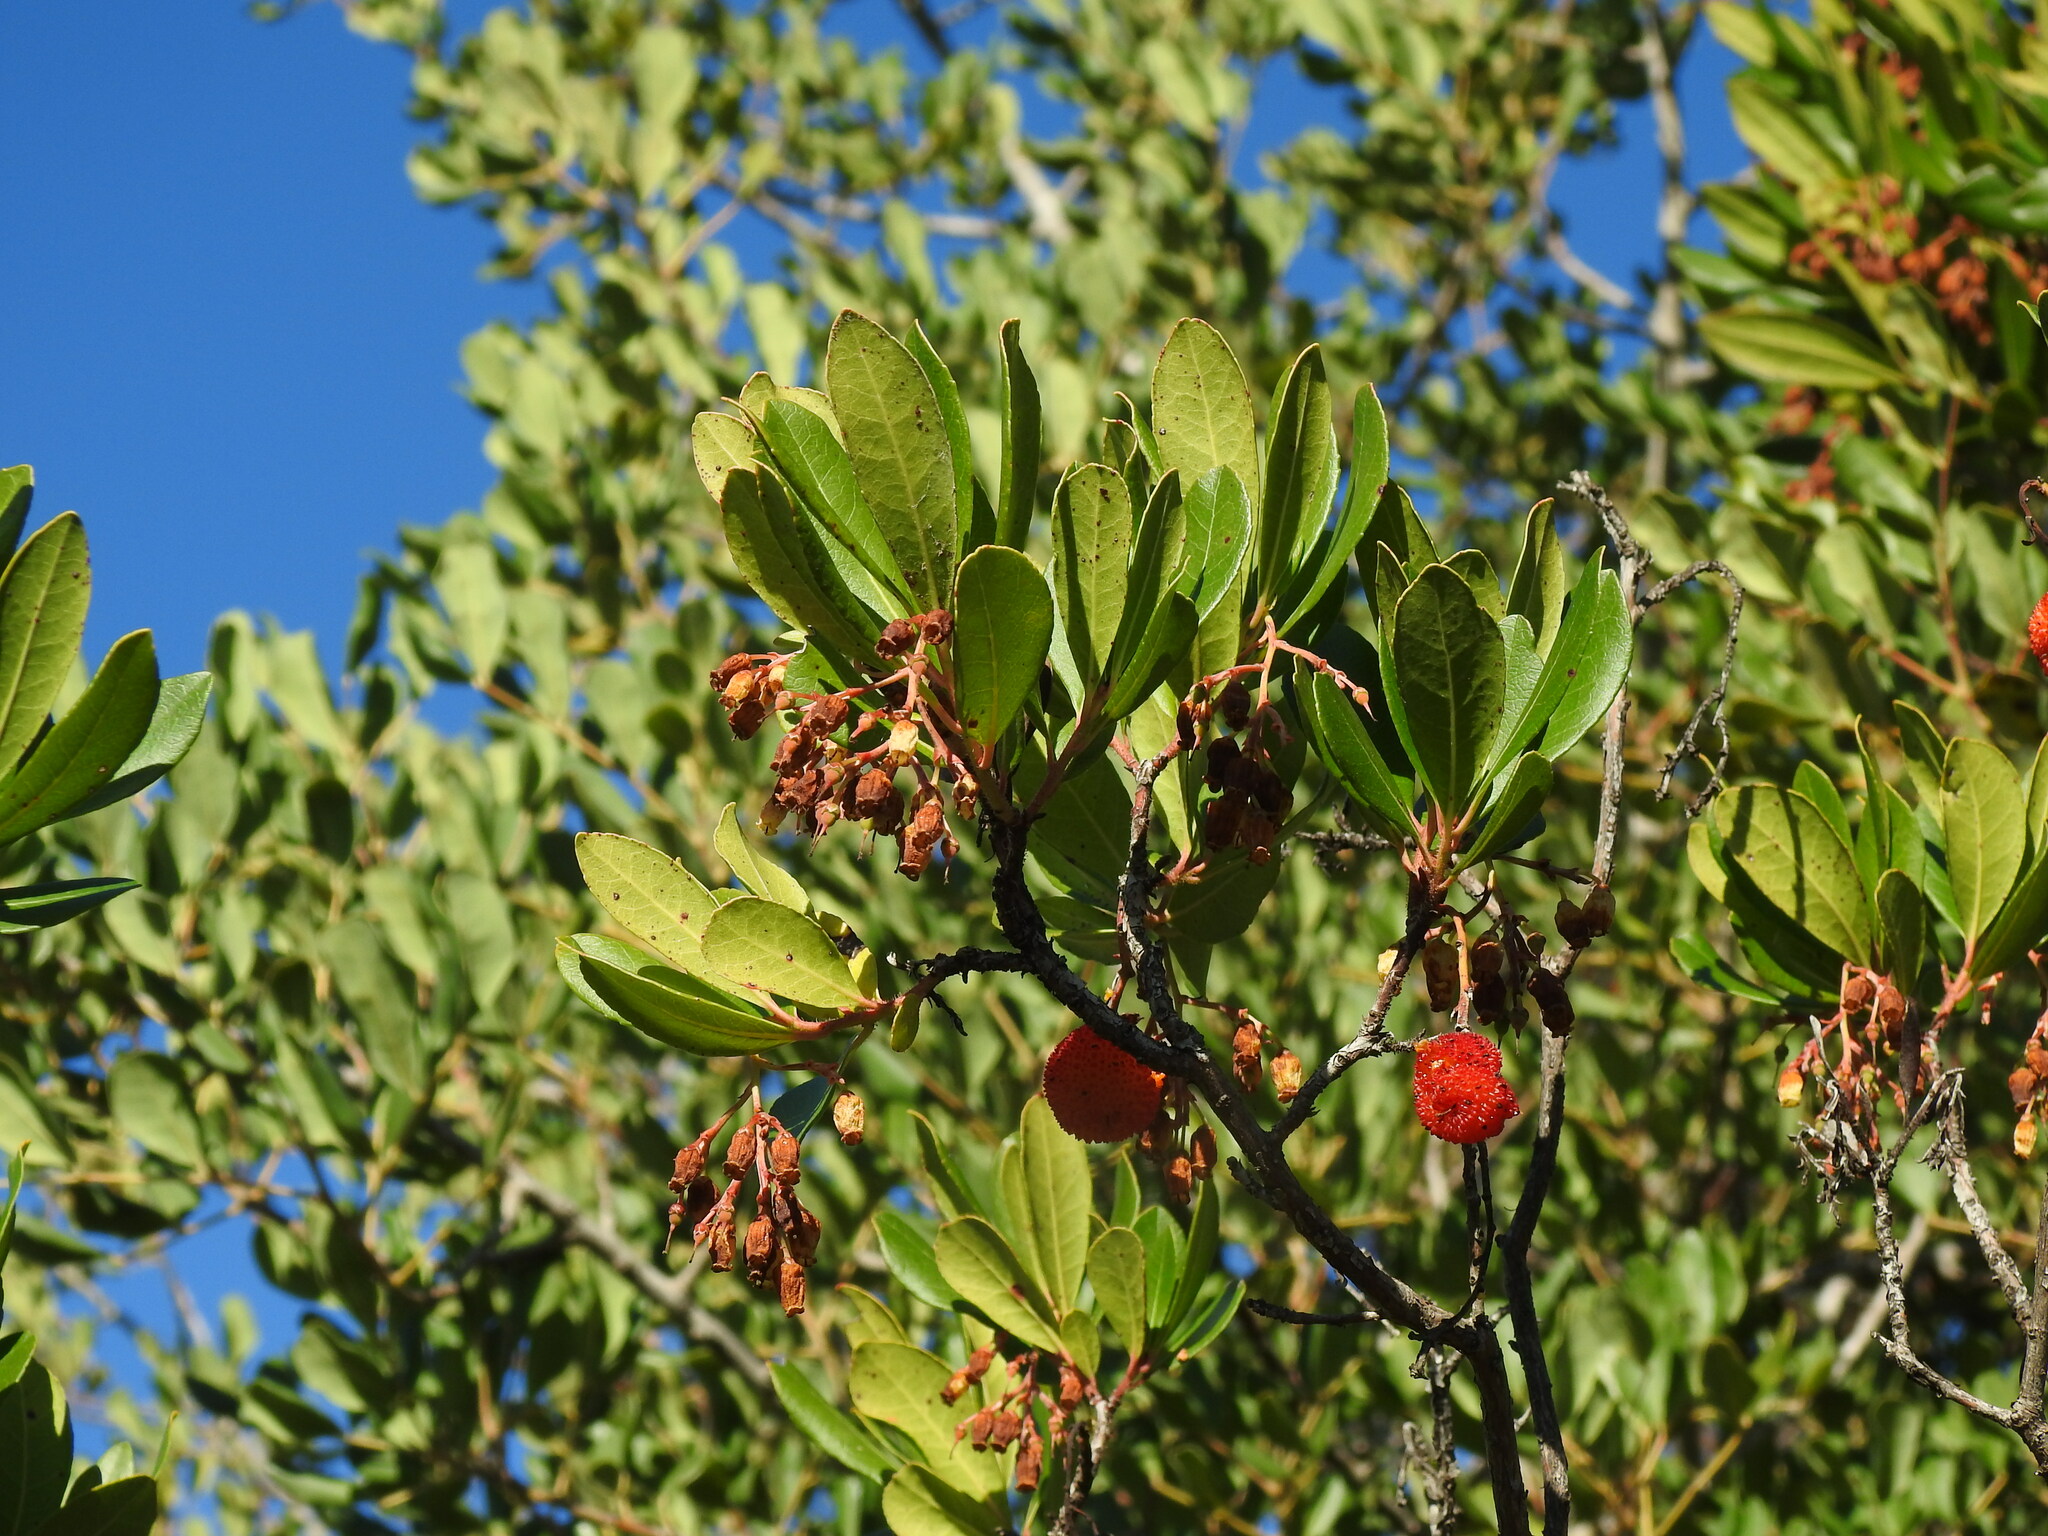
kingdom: Plantae
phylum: Tracheophyta
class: Magnoliopsida
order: Ericales
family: Ericaceae
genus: Arbutus
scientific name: Arbutus unedo
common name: Strawberry-tree
